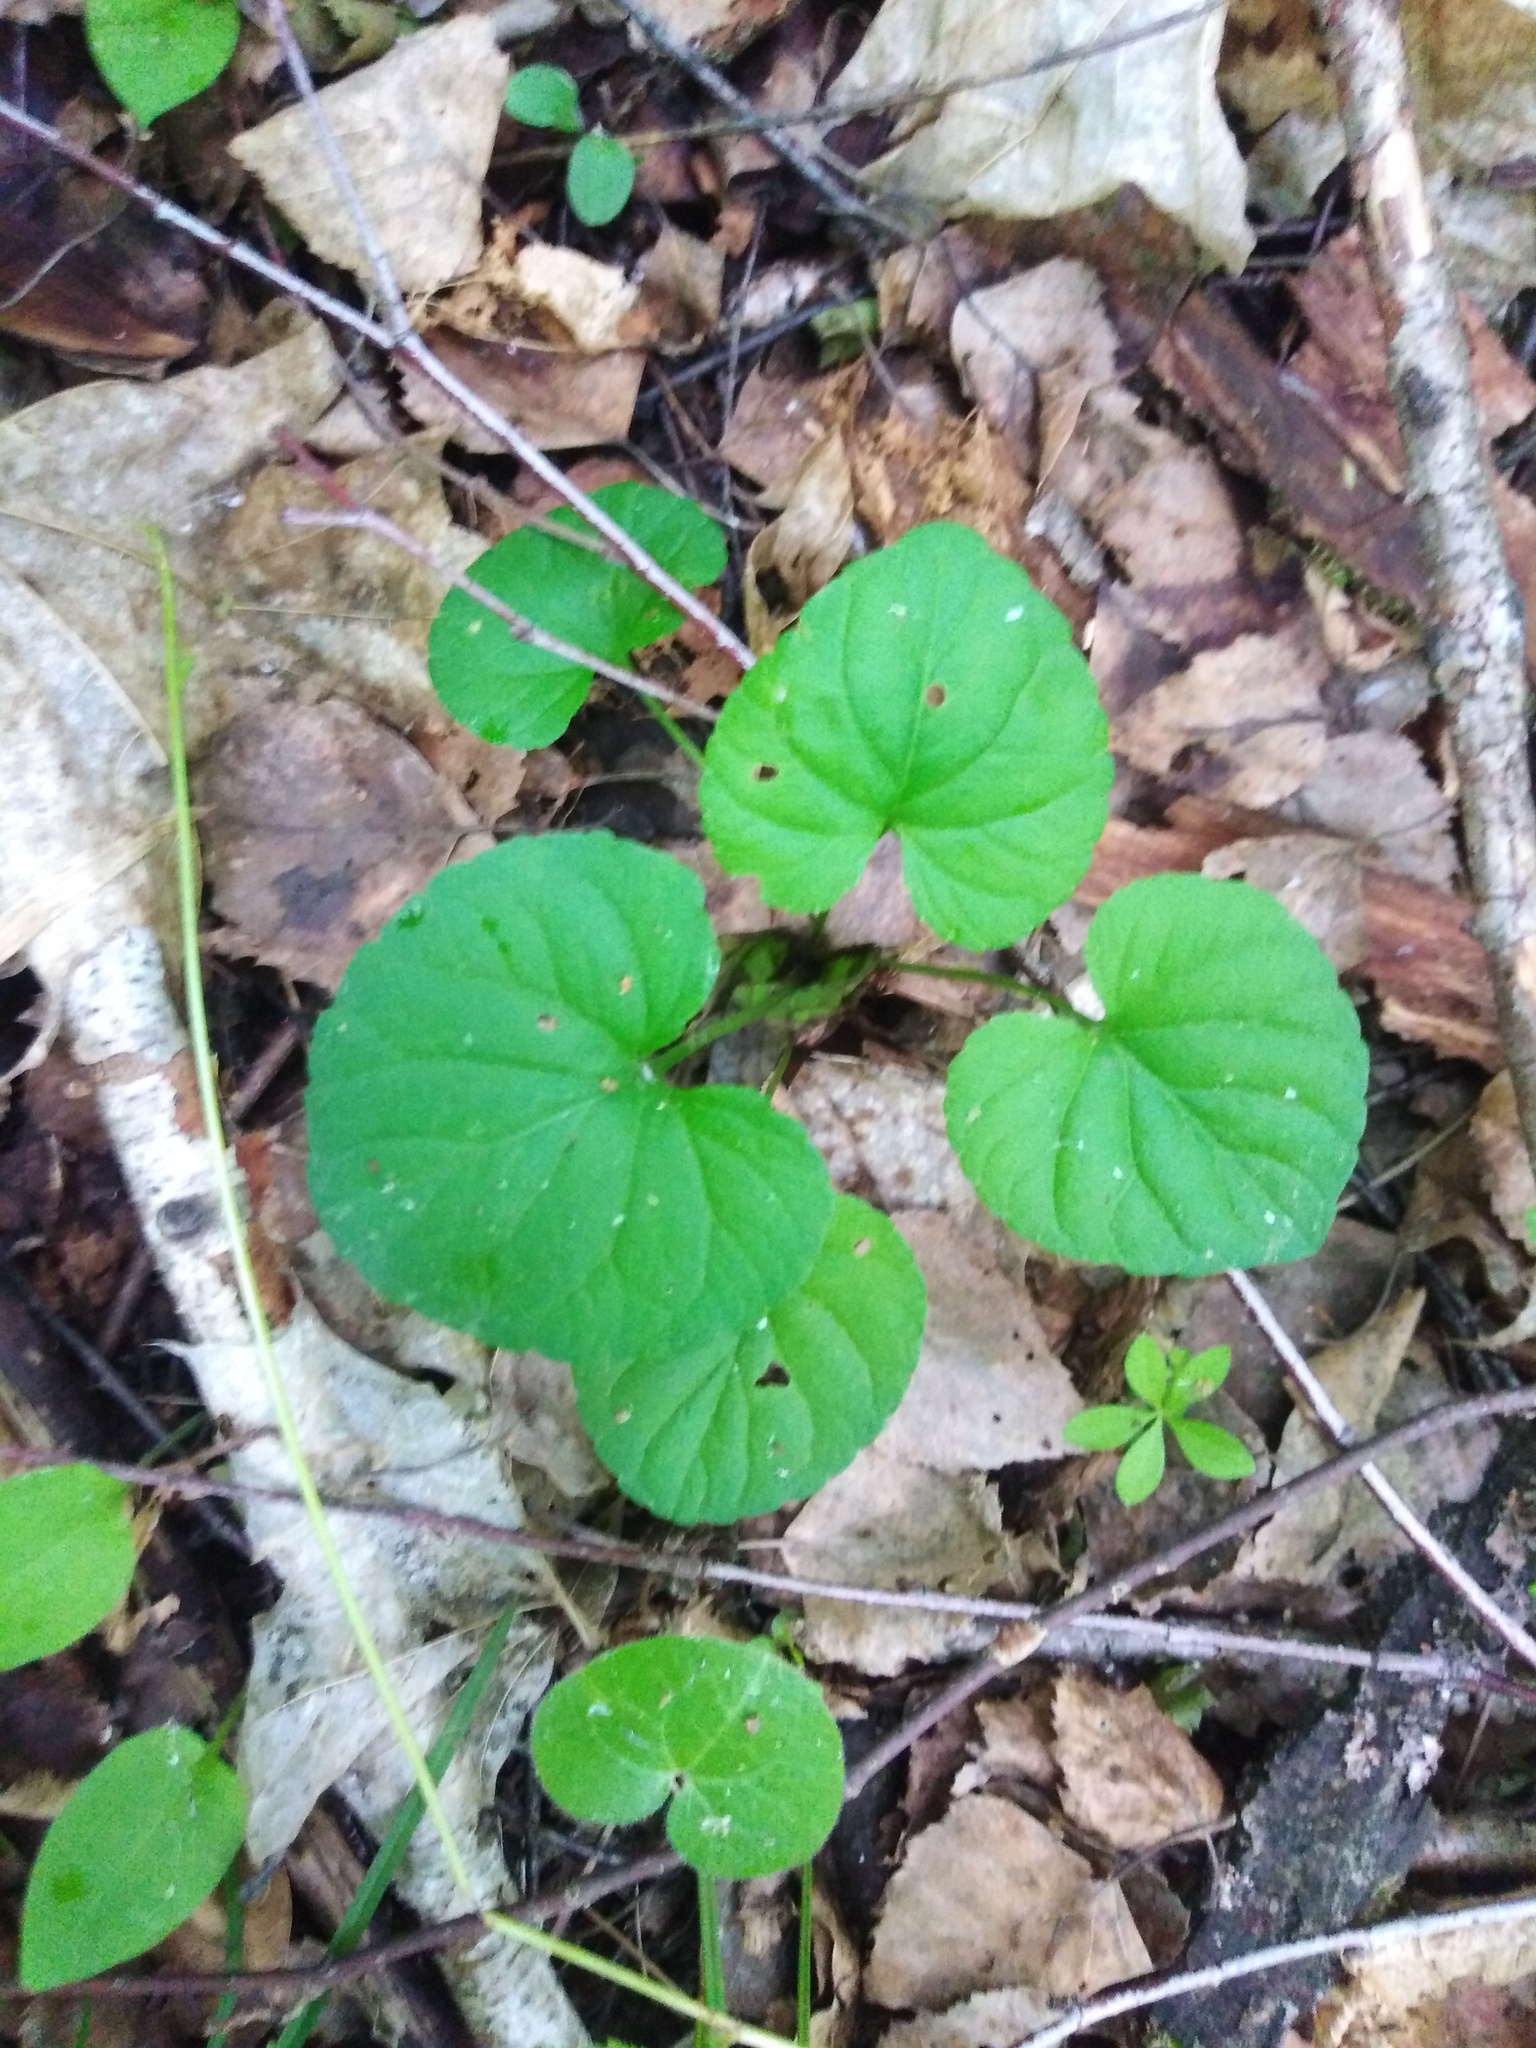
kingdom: Plantae
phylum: Tracheophyta
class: Magnoliopsida
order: Malpighiales
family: Violaceae
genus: Viola
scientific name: Viola riviniana
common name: Common dog-violet
